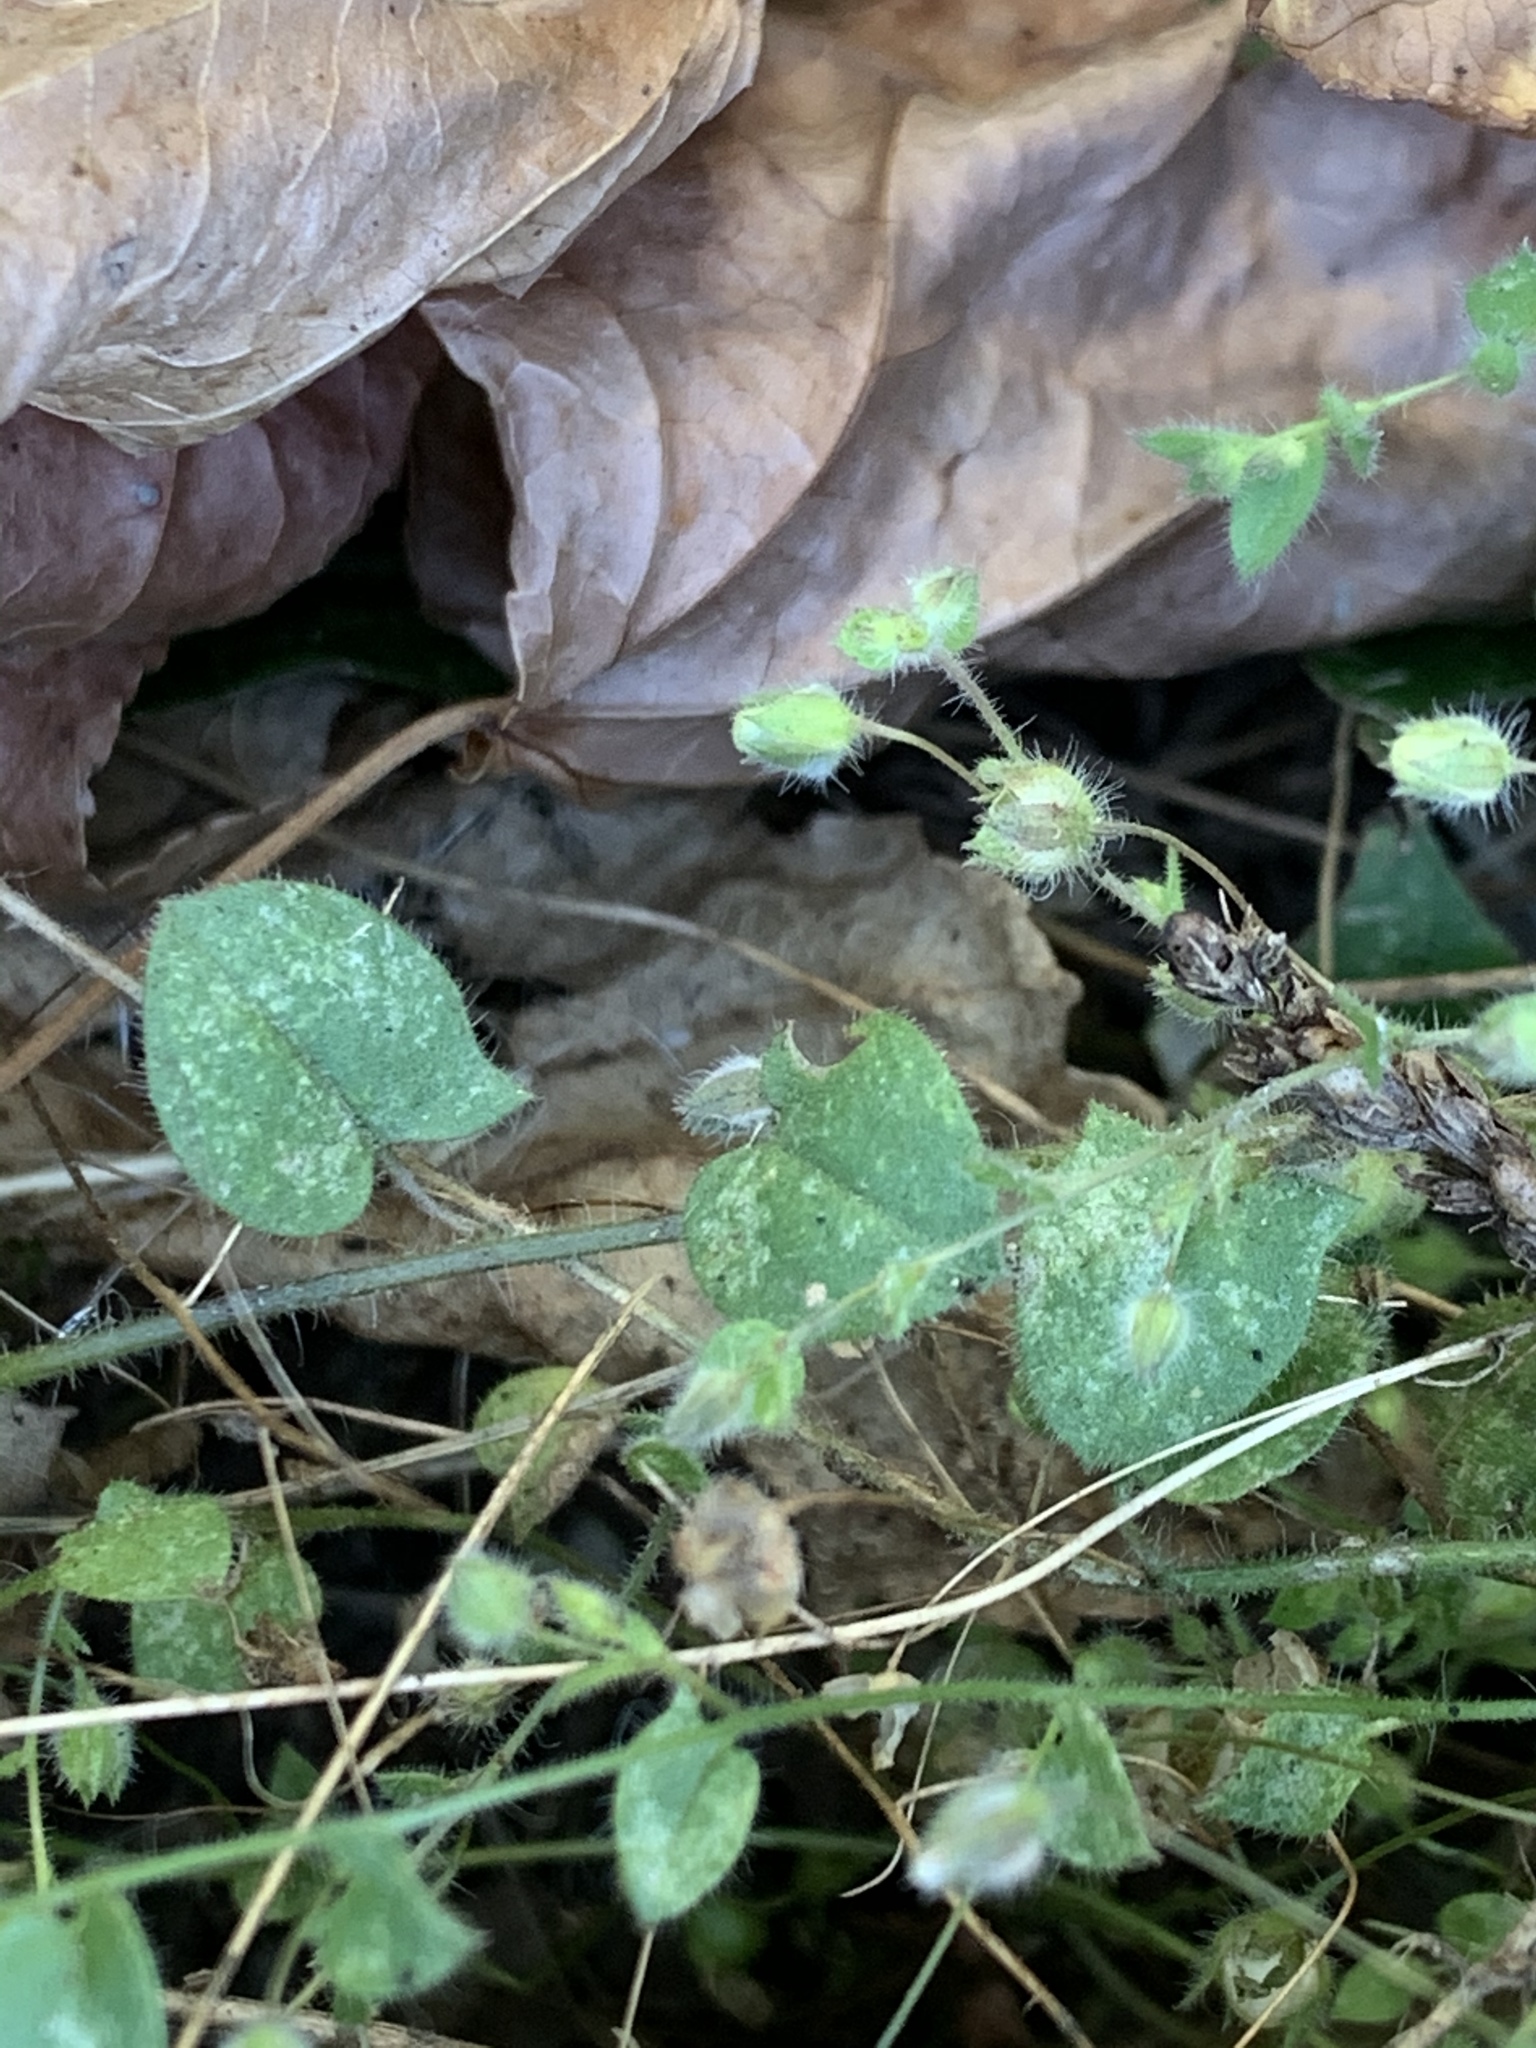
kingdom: Plantae
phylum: Tracheophyta
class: Magnoliopsida
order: Lamiales
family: Plantaginaceae
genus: Kickxia
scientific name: Kickxia elatine
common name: Sharp-leaved fluellen
